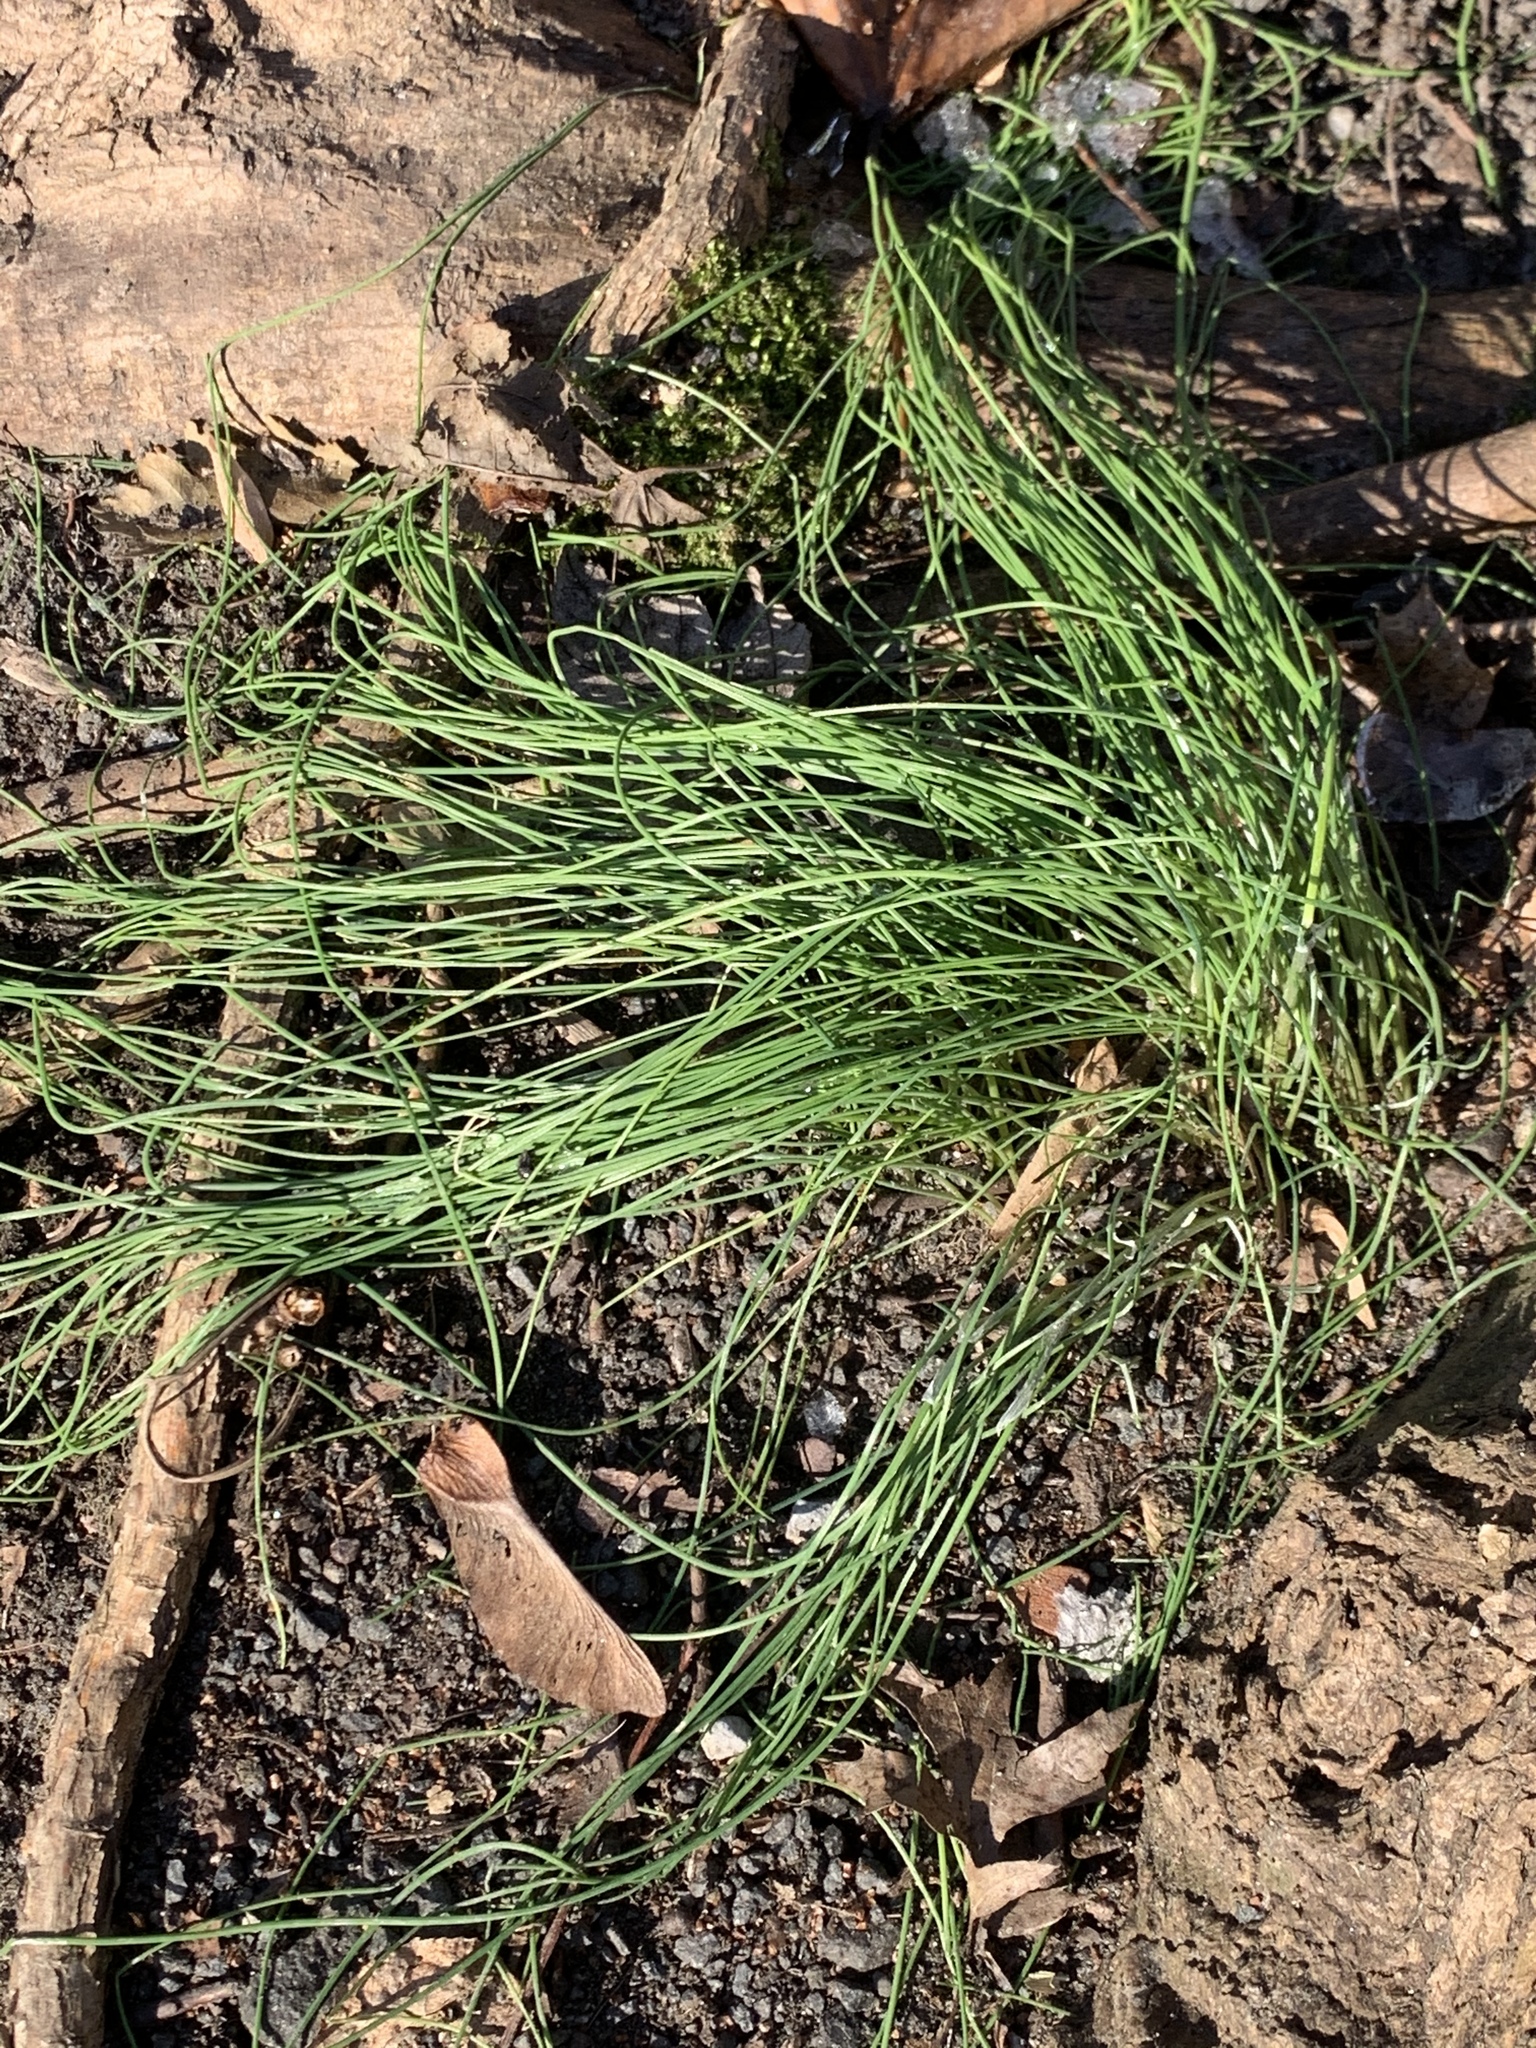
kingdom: Plantae
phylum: Tracheophyta
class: Liliopsida
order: Asparagales
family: Amaryllidaceae
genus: Allium
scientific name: Allium vineale
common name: Crow garlic
